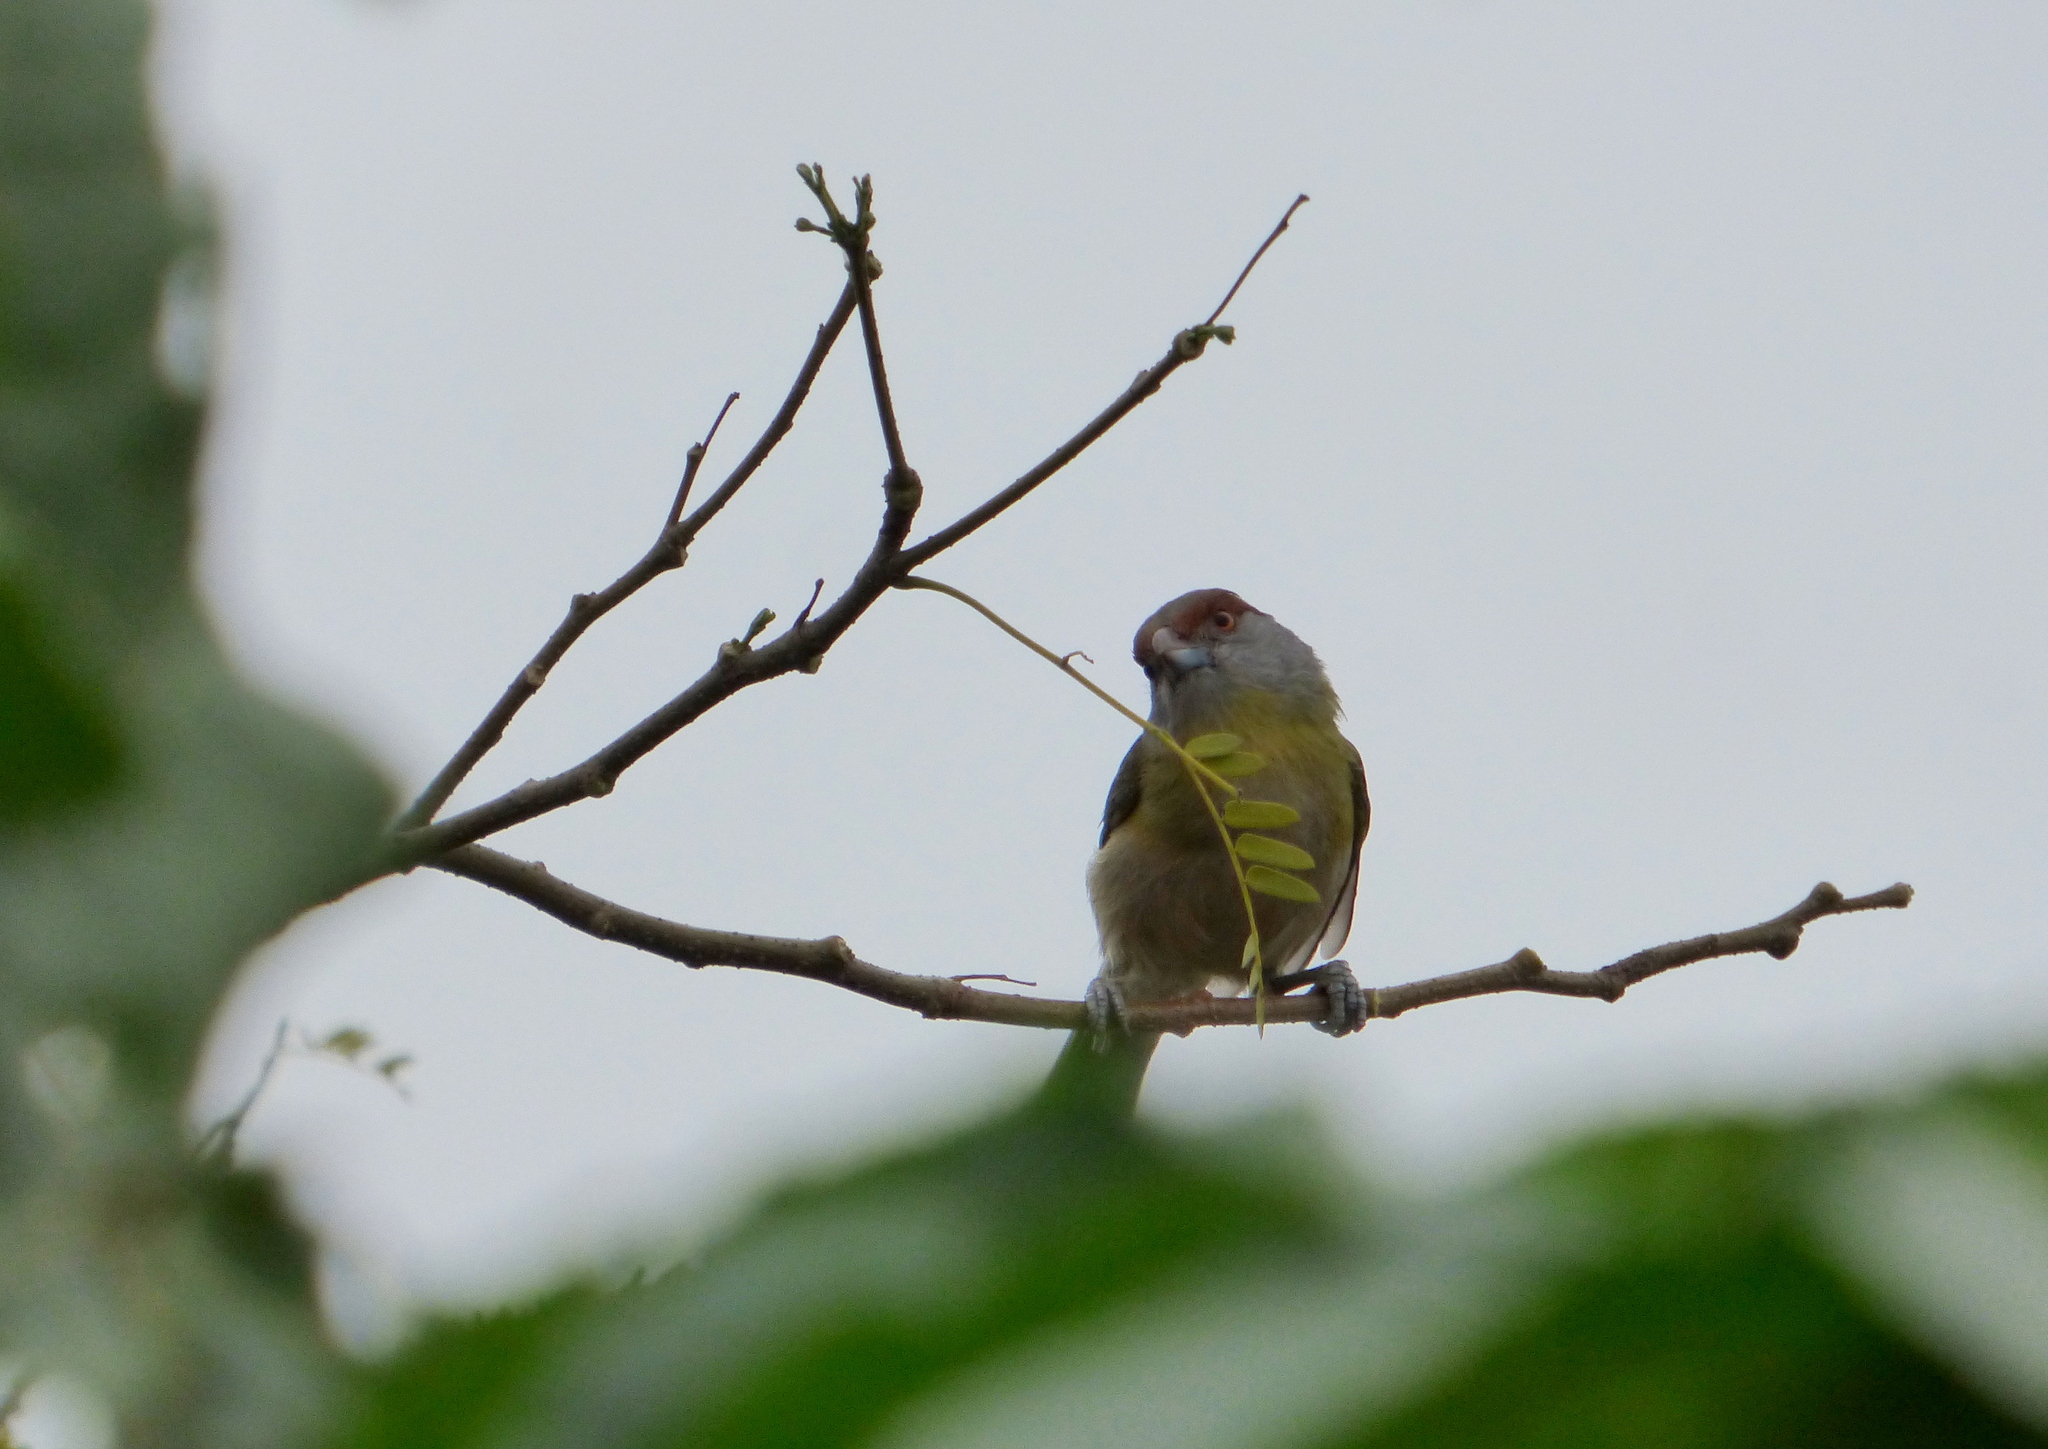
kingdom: Animalia
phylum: Chordata
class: Aves
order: Passeriformes
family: Vireonidae
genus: Cyclarhis
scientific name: Cyclarhis gujanensis
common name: Rufous-browed peppershrike
